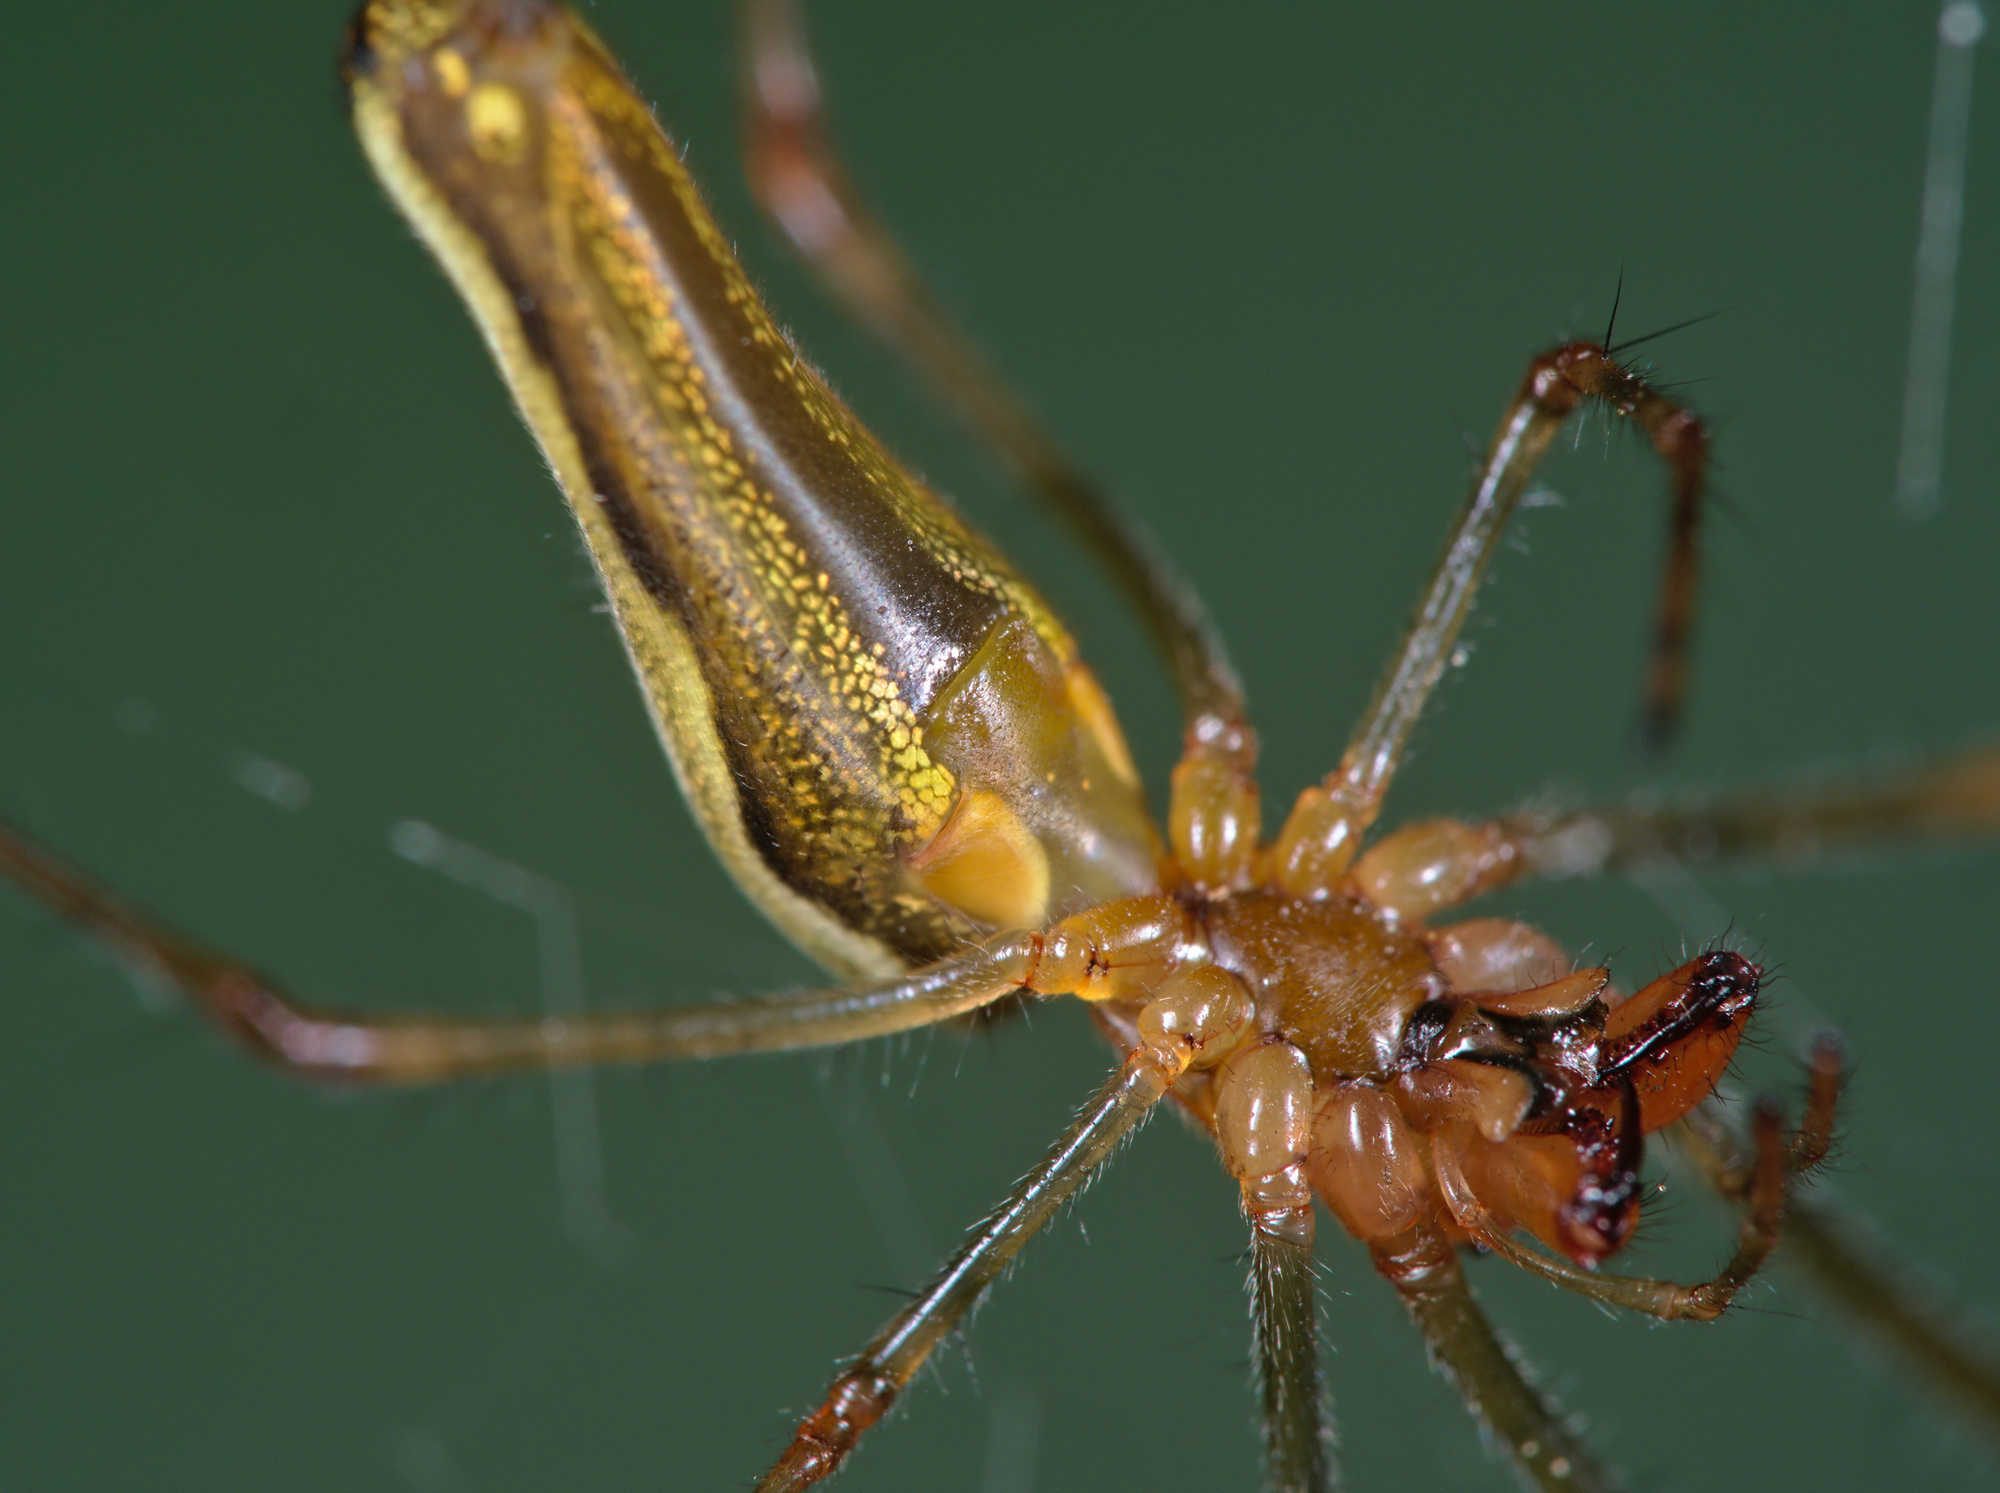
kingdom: Animalia
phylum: Arthropoda
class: Arachnida
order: Araneae
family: Tetragnathidae
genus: Tetragnatha
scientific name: Tetragnatha montana
